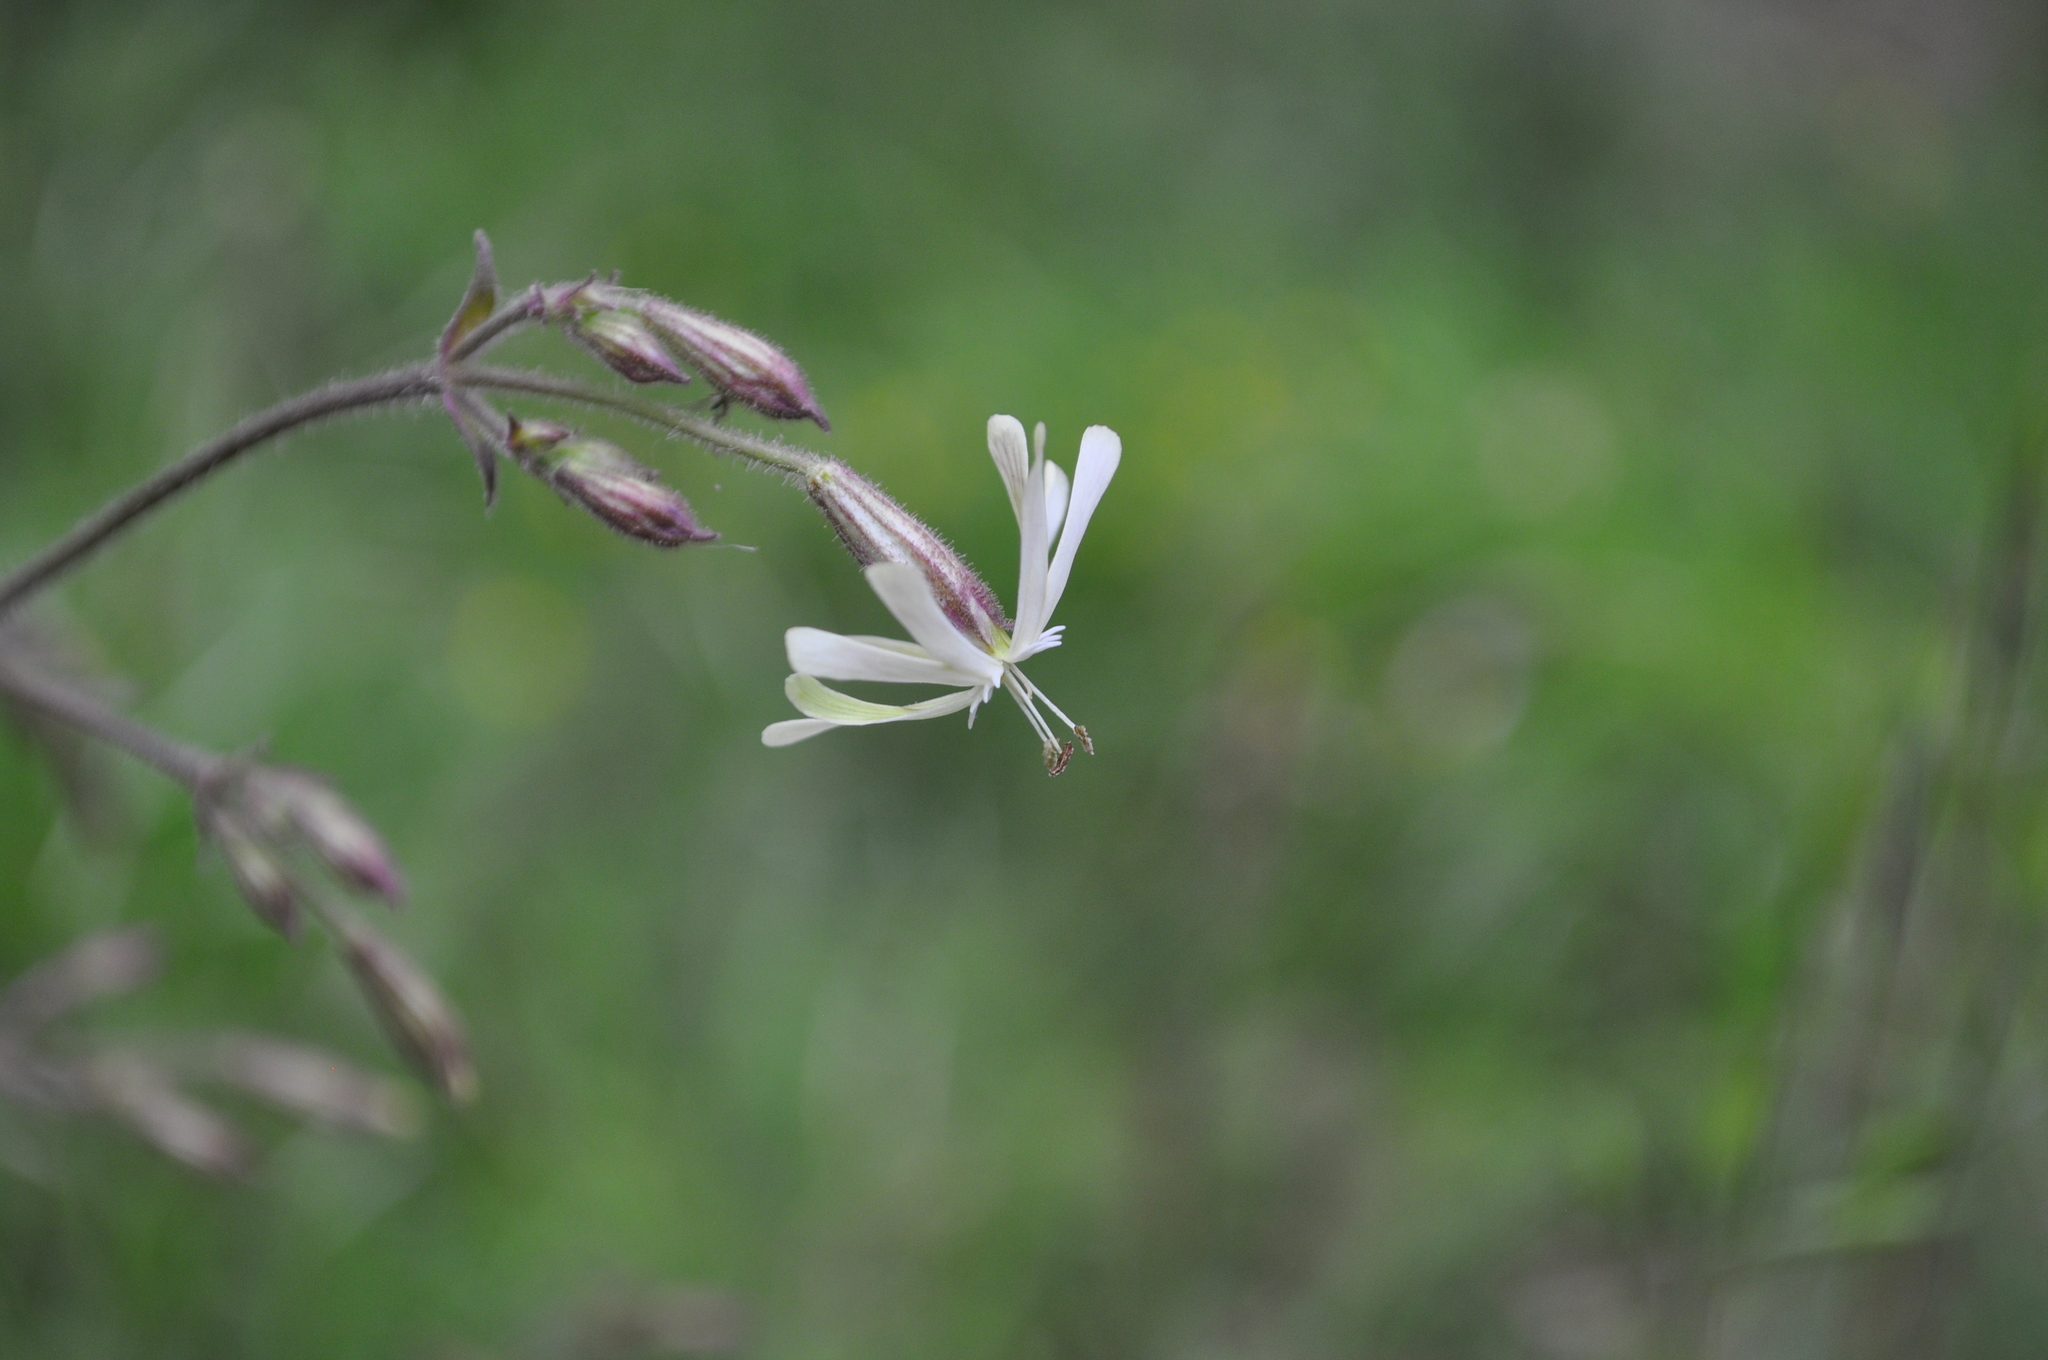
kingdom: Plantae
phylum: Tracheophyta
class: Magnoliopsida
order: Caryophyllales
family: Caryophyllaceae
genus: Silene
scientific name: Silene nutans
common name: Nottingham catchfly
